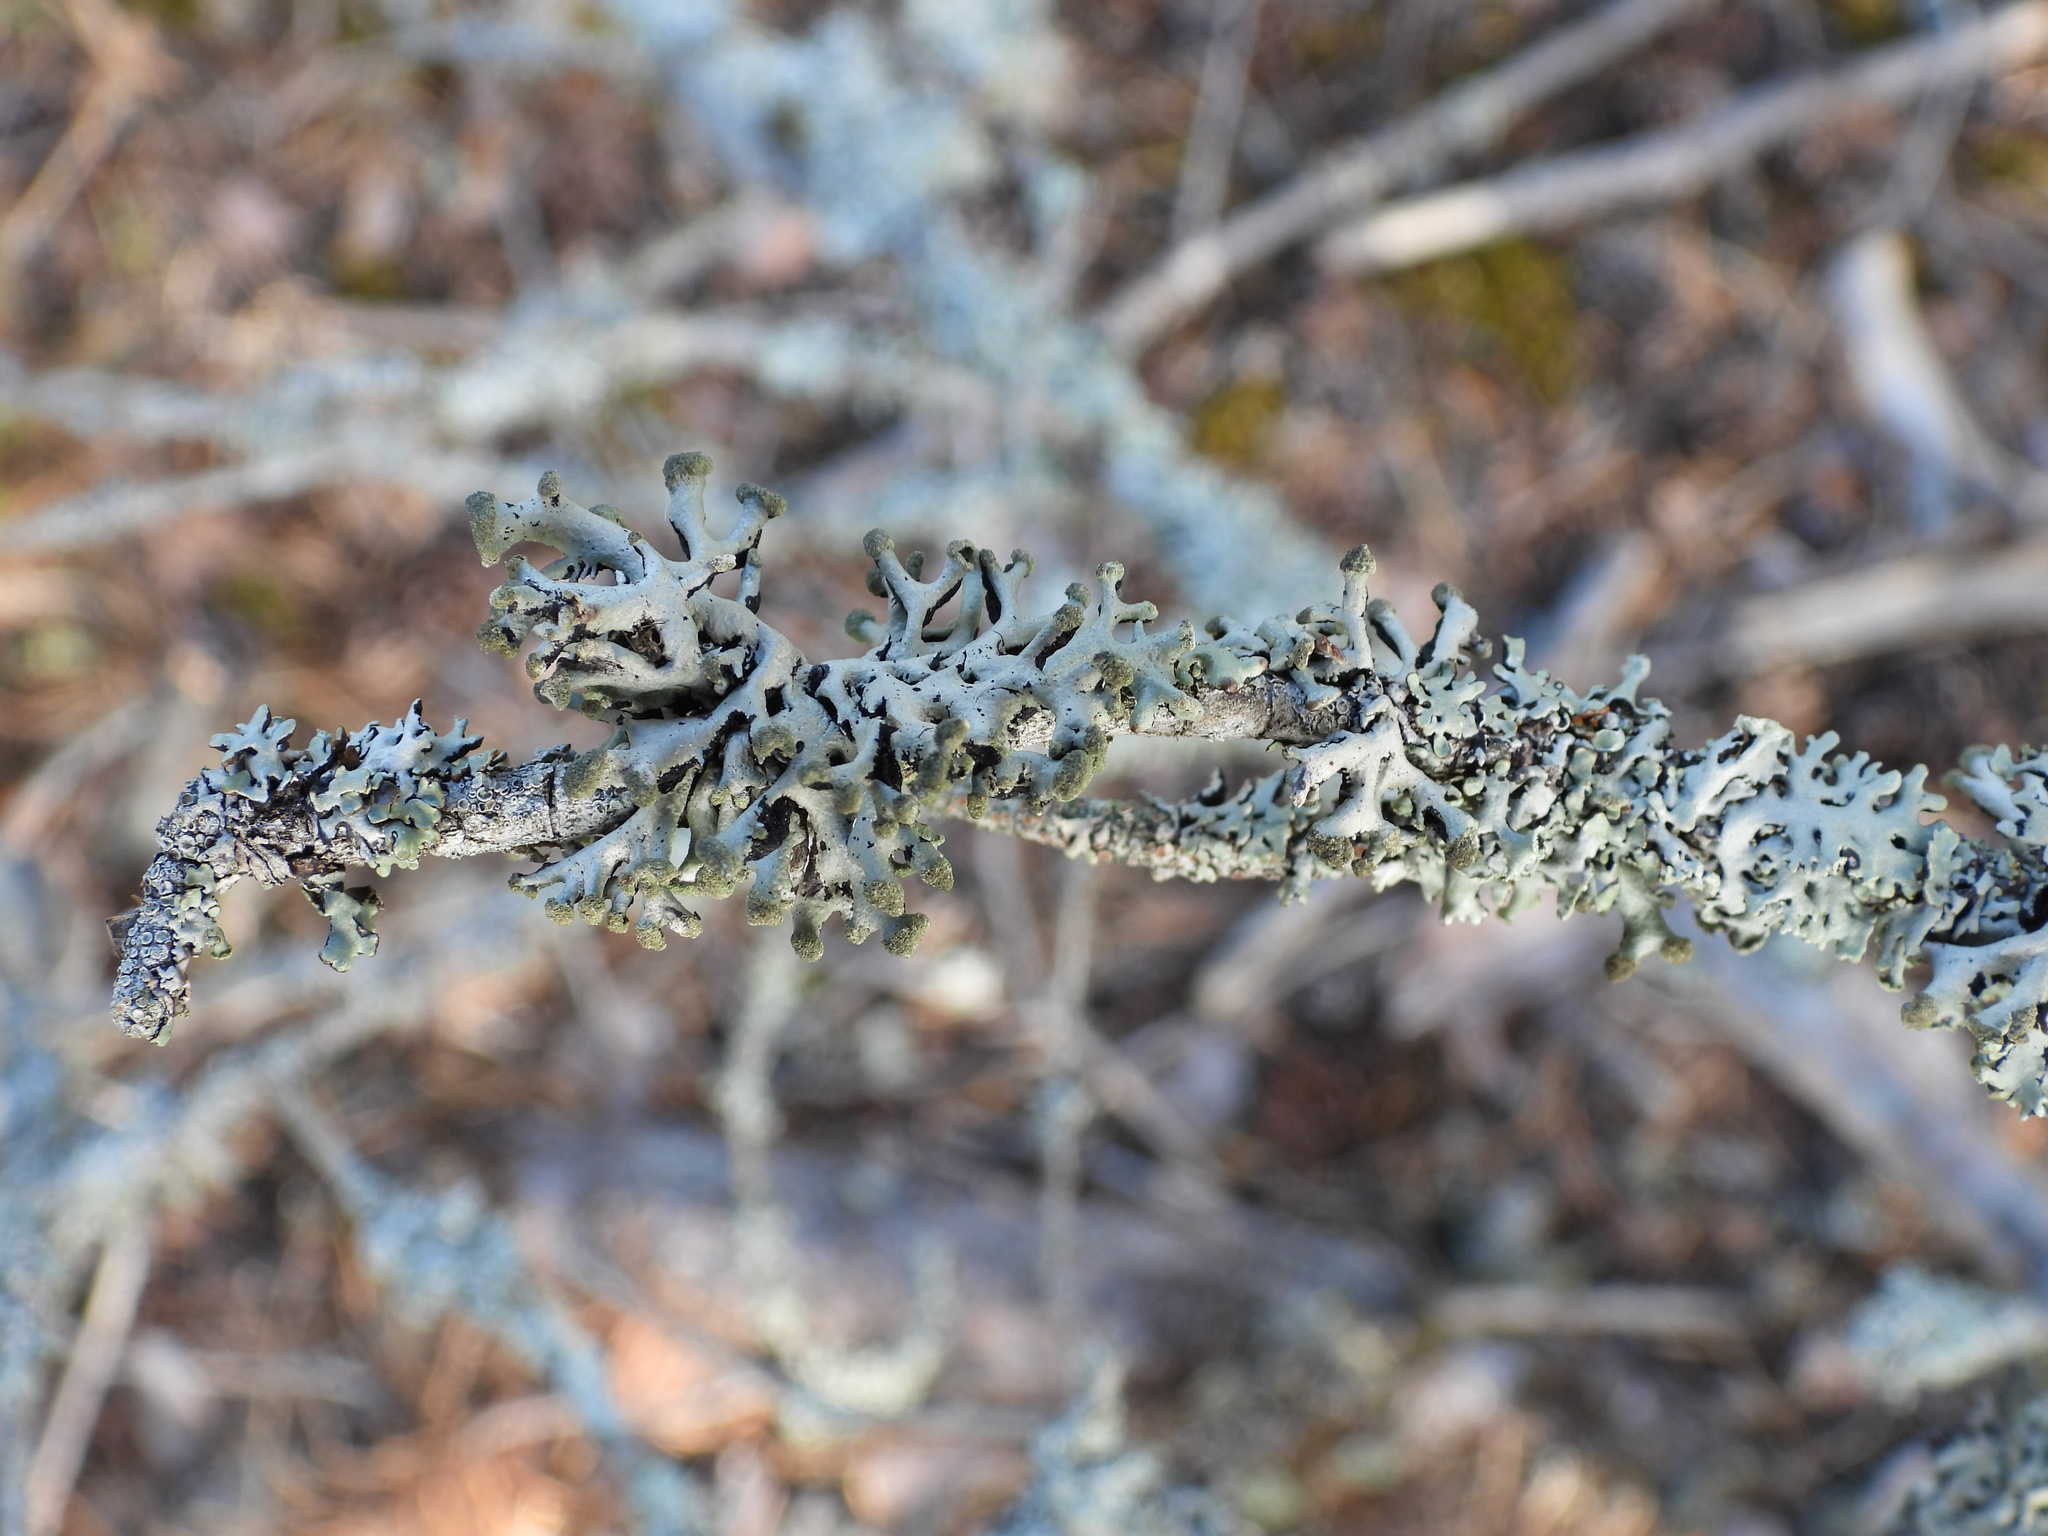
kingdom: Fungi
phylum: Ascomycota
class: Lecanoromycetes
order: Lecanorales
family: Parmeliaceae
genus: Hypogymnia
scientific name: Hypogymnia tubulosa
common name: Powder-headed tube lichen
